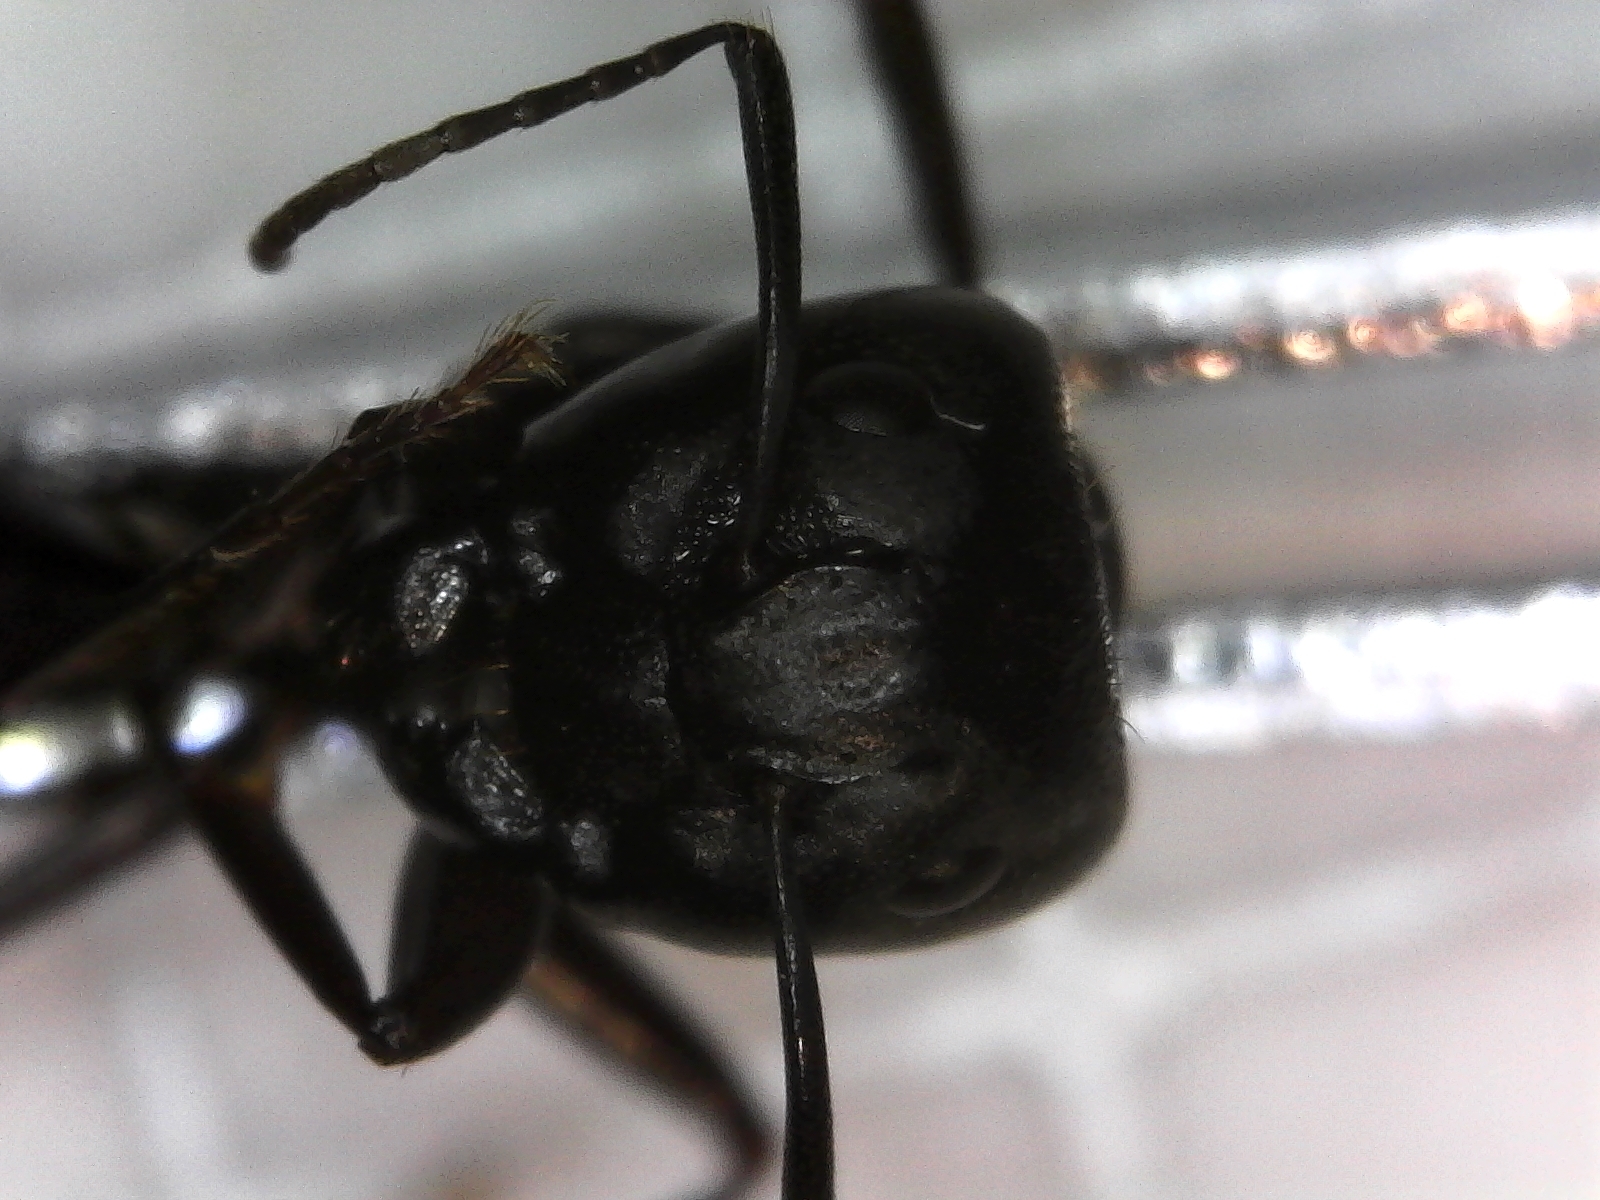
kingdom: Animalia
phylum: Arthropoda
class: Insecta
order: Hymenoptera
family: Formicidae
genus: Camponotus
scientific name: Camponotus pennsylvanicus
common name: Black carpenter ant
